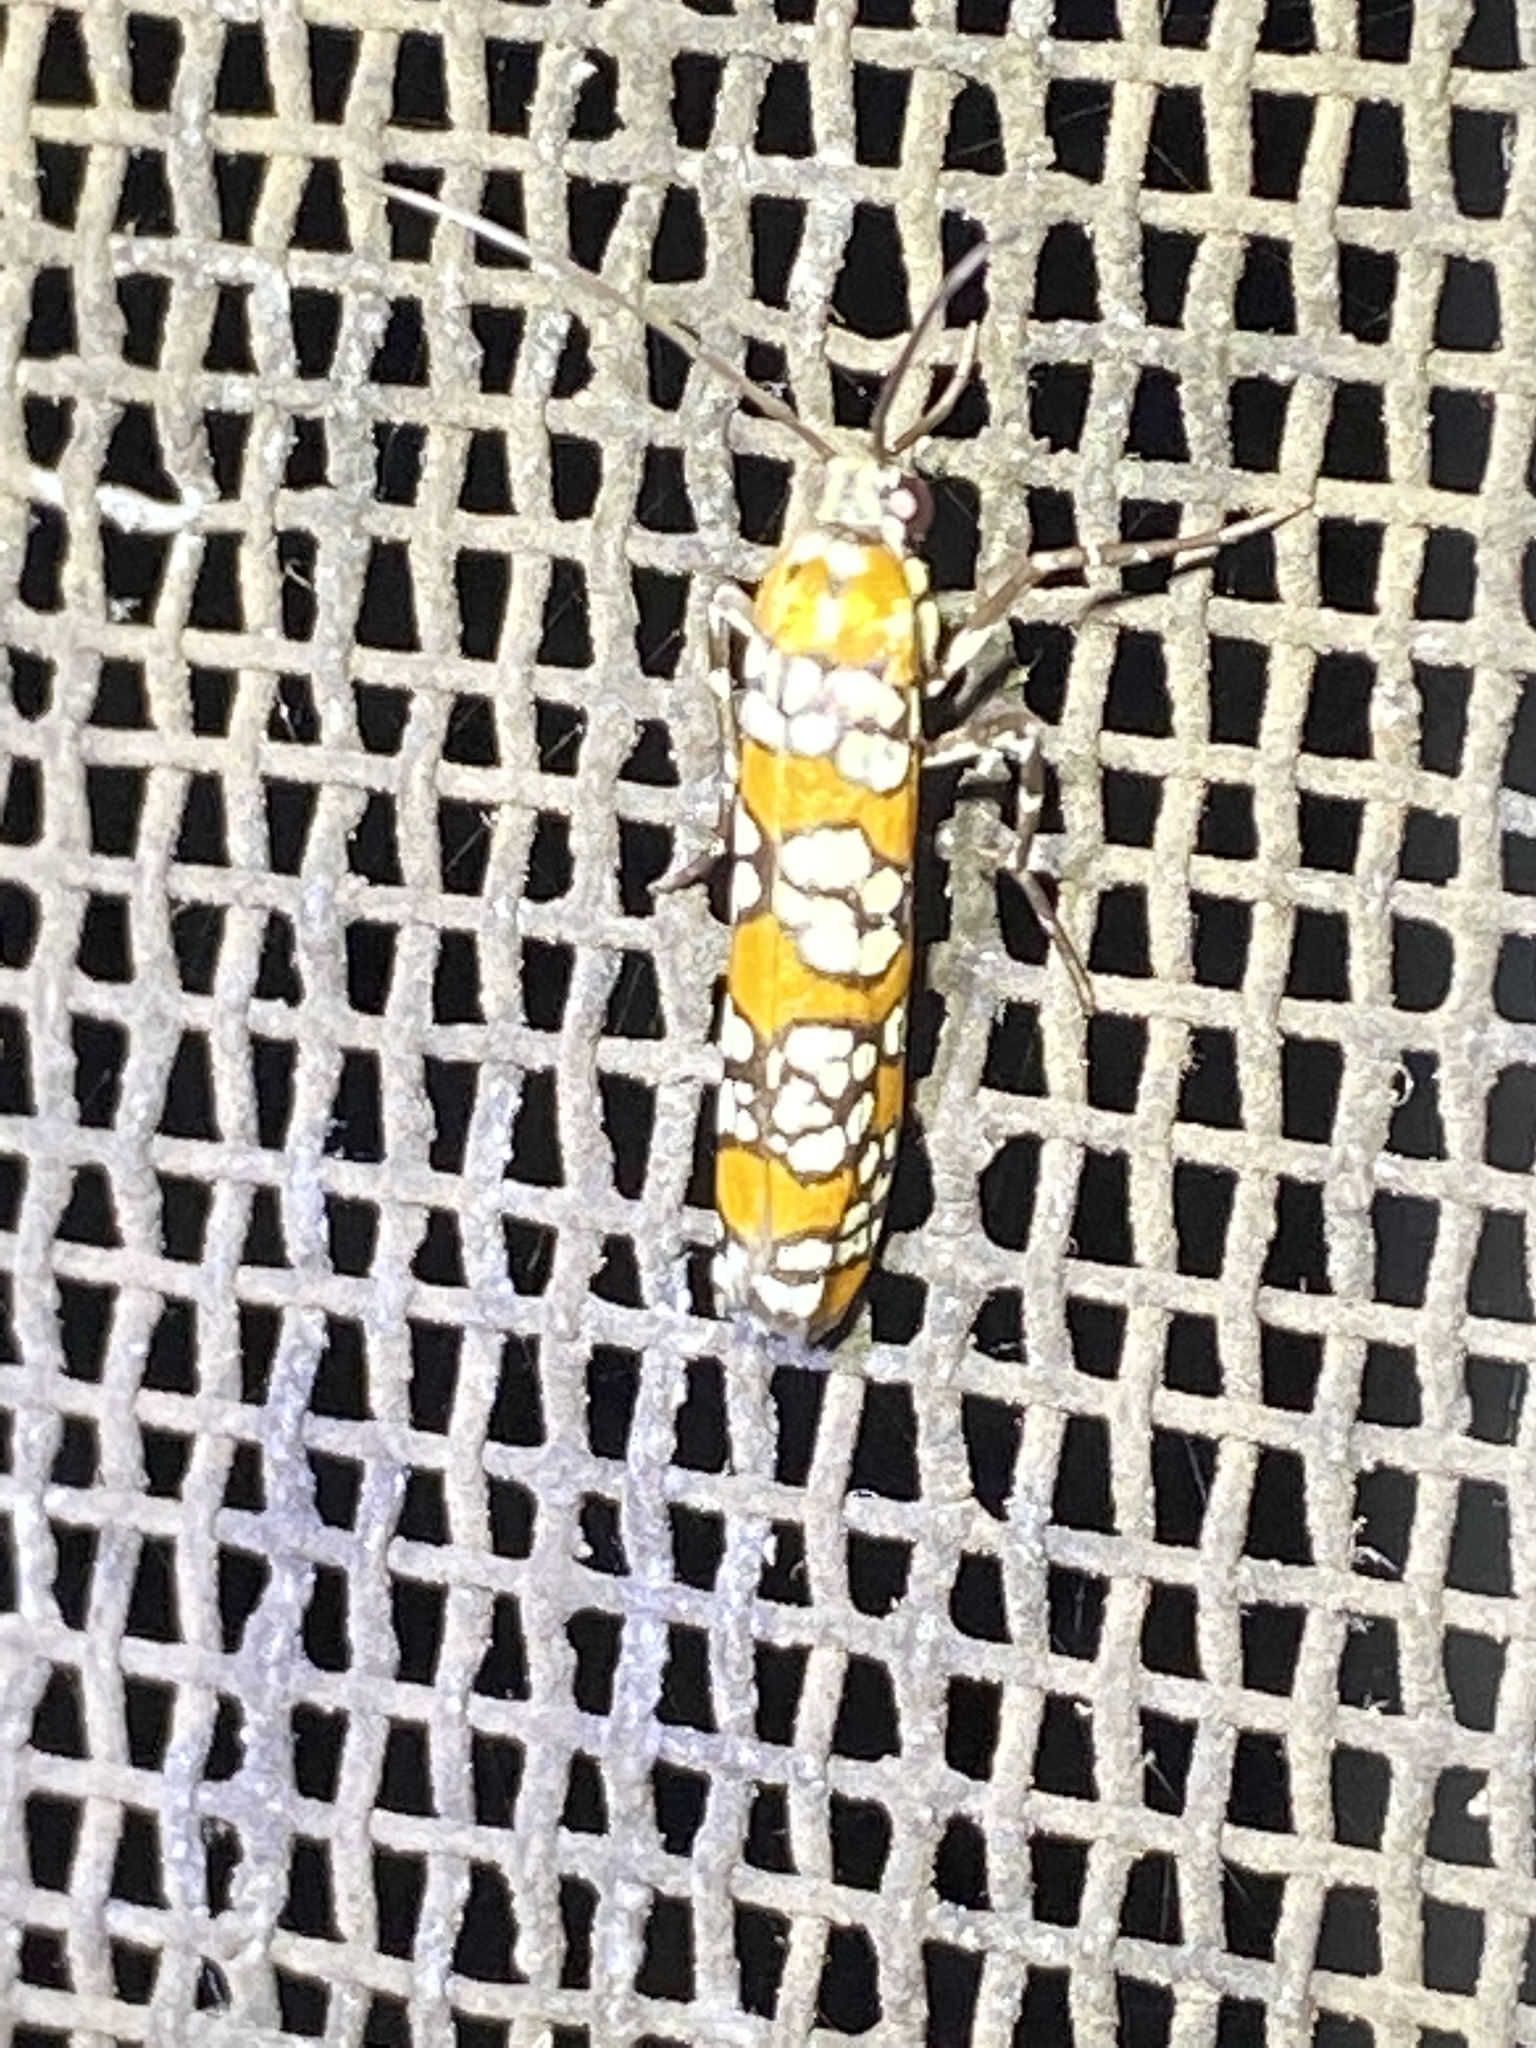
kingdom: Animalia
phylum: Arthropoda
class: Insecta
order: Lepidoptera
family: Attevidae
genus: Atteva
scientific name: Atteva punctella
